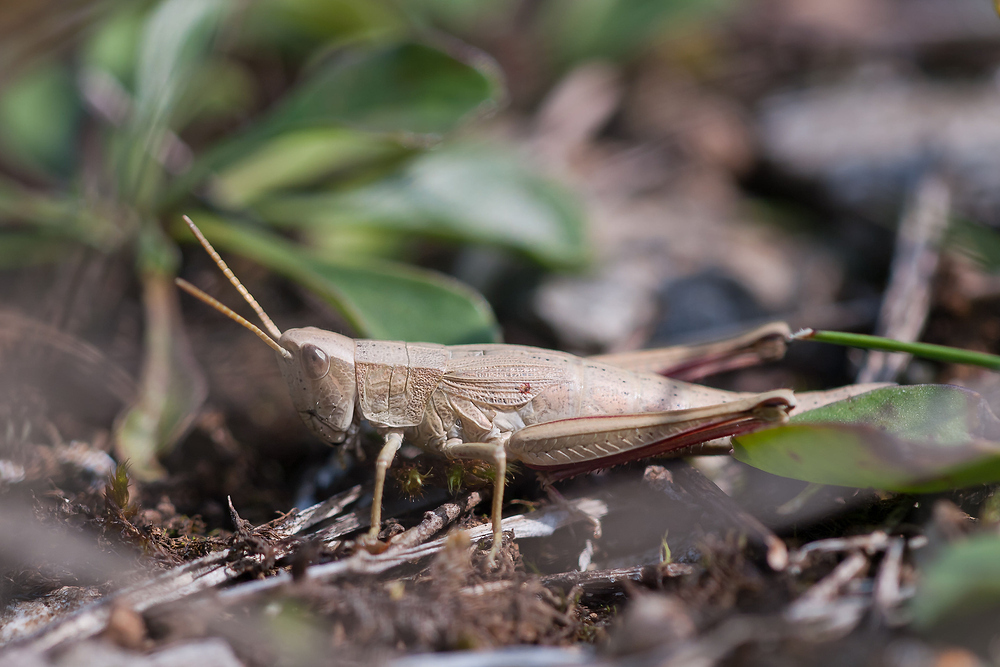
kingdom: Animalia
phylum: Arthropoda
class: Insecta
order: Orthoptera
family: Acrididae
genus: Chrysochraon
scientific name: Chrysochraon dispar
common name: Large gold grasshopper
